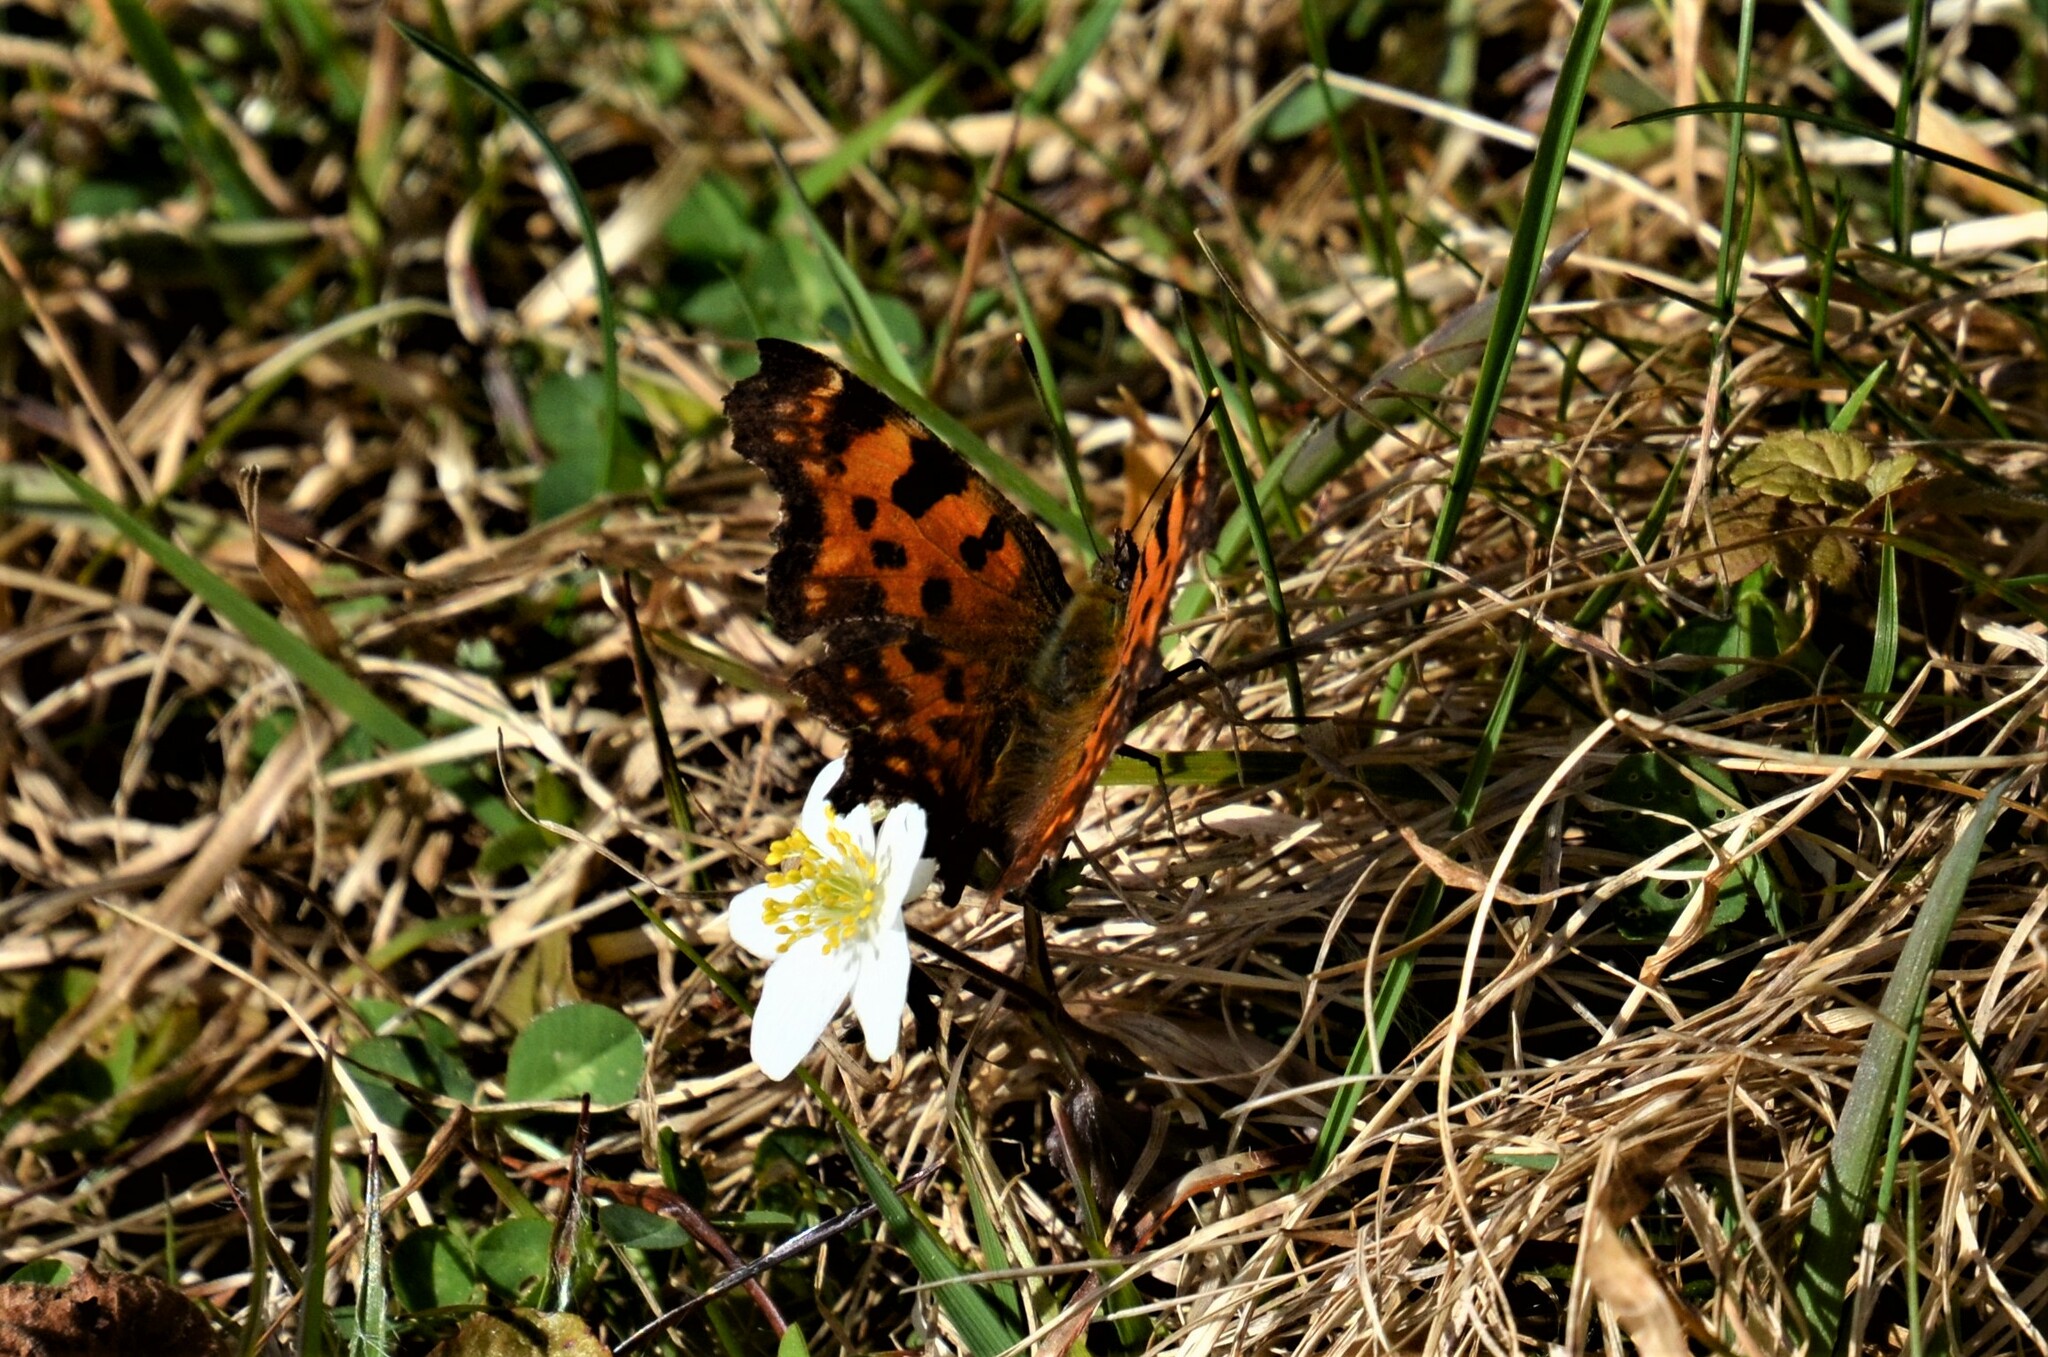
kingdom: Animalia
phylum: Arthropoda
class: Insecta
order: Lepidoptera
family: Nymphalidae
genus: Polygonia
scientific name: Polygonia c-album
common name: Comma
